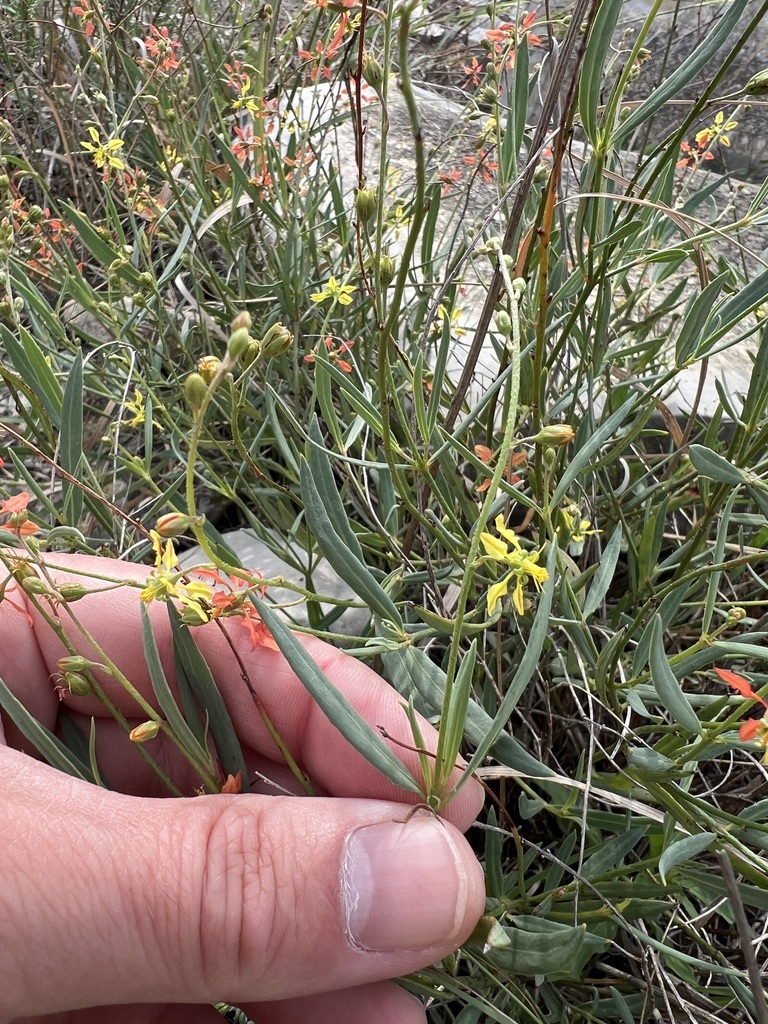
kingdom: Plantae
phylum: Tracheophyta
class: Magnoliopsida
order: Malpighiales
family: Malpighiaceae
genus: Galphimia
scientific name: Galphimia angustifolia
